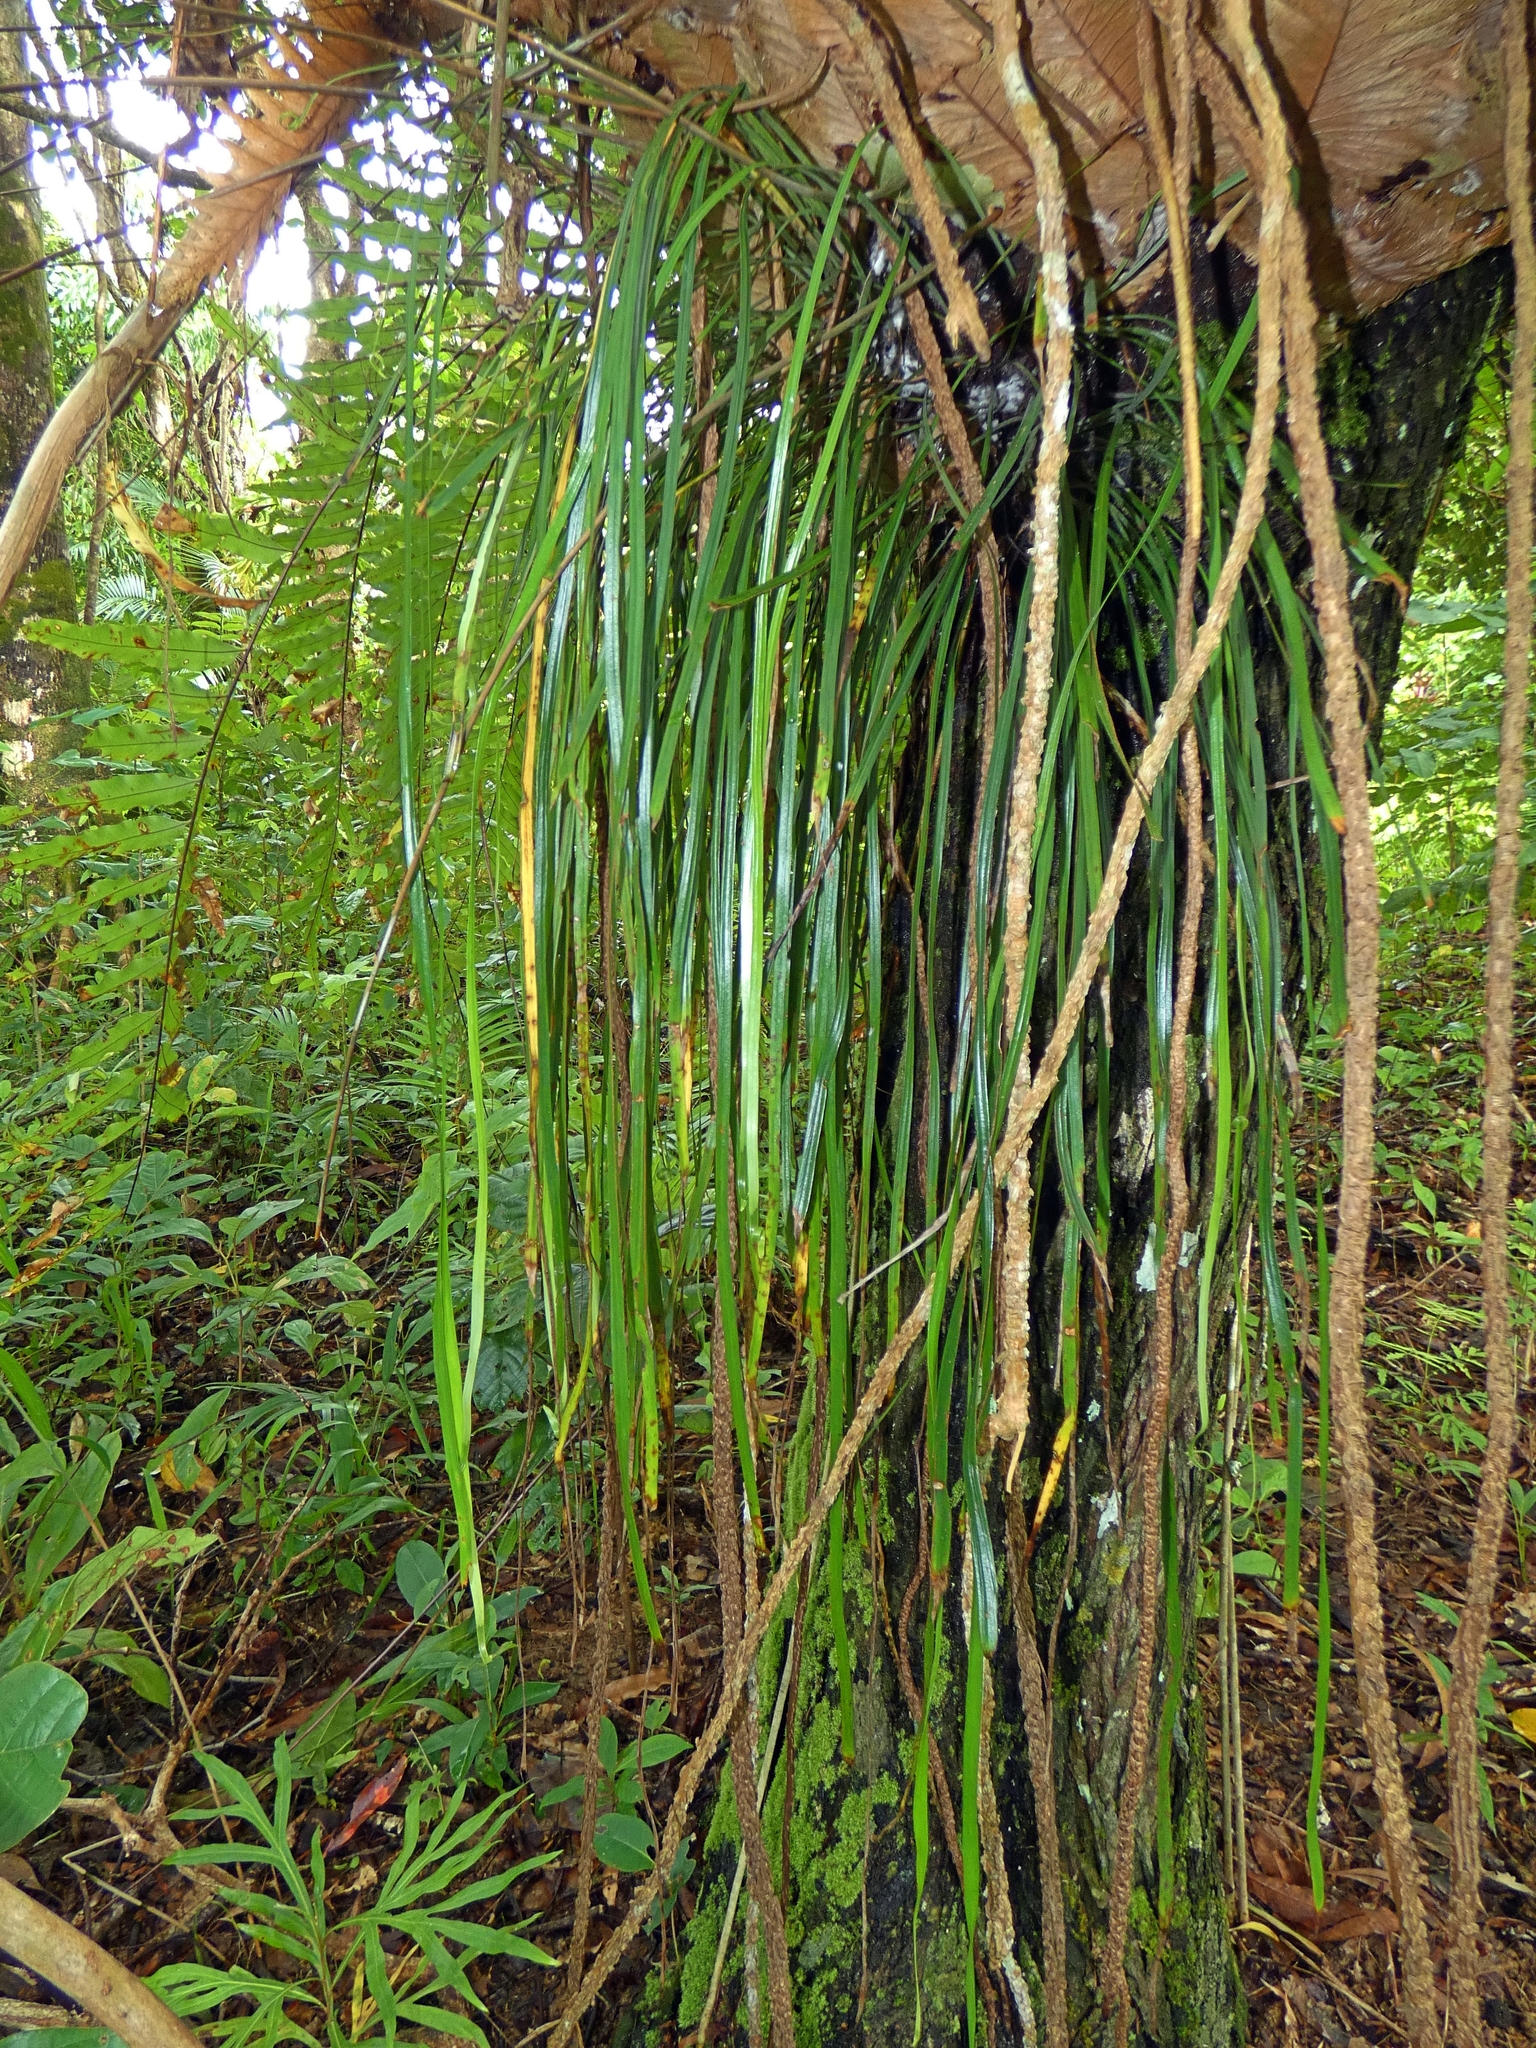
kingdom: Plantae
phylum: Tracheophyta
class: Polypodiopsida
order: Polypodiales
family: Pteridaceae
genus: Haplopteris
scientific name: Haplopteris elongata
